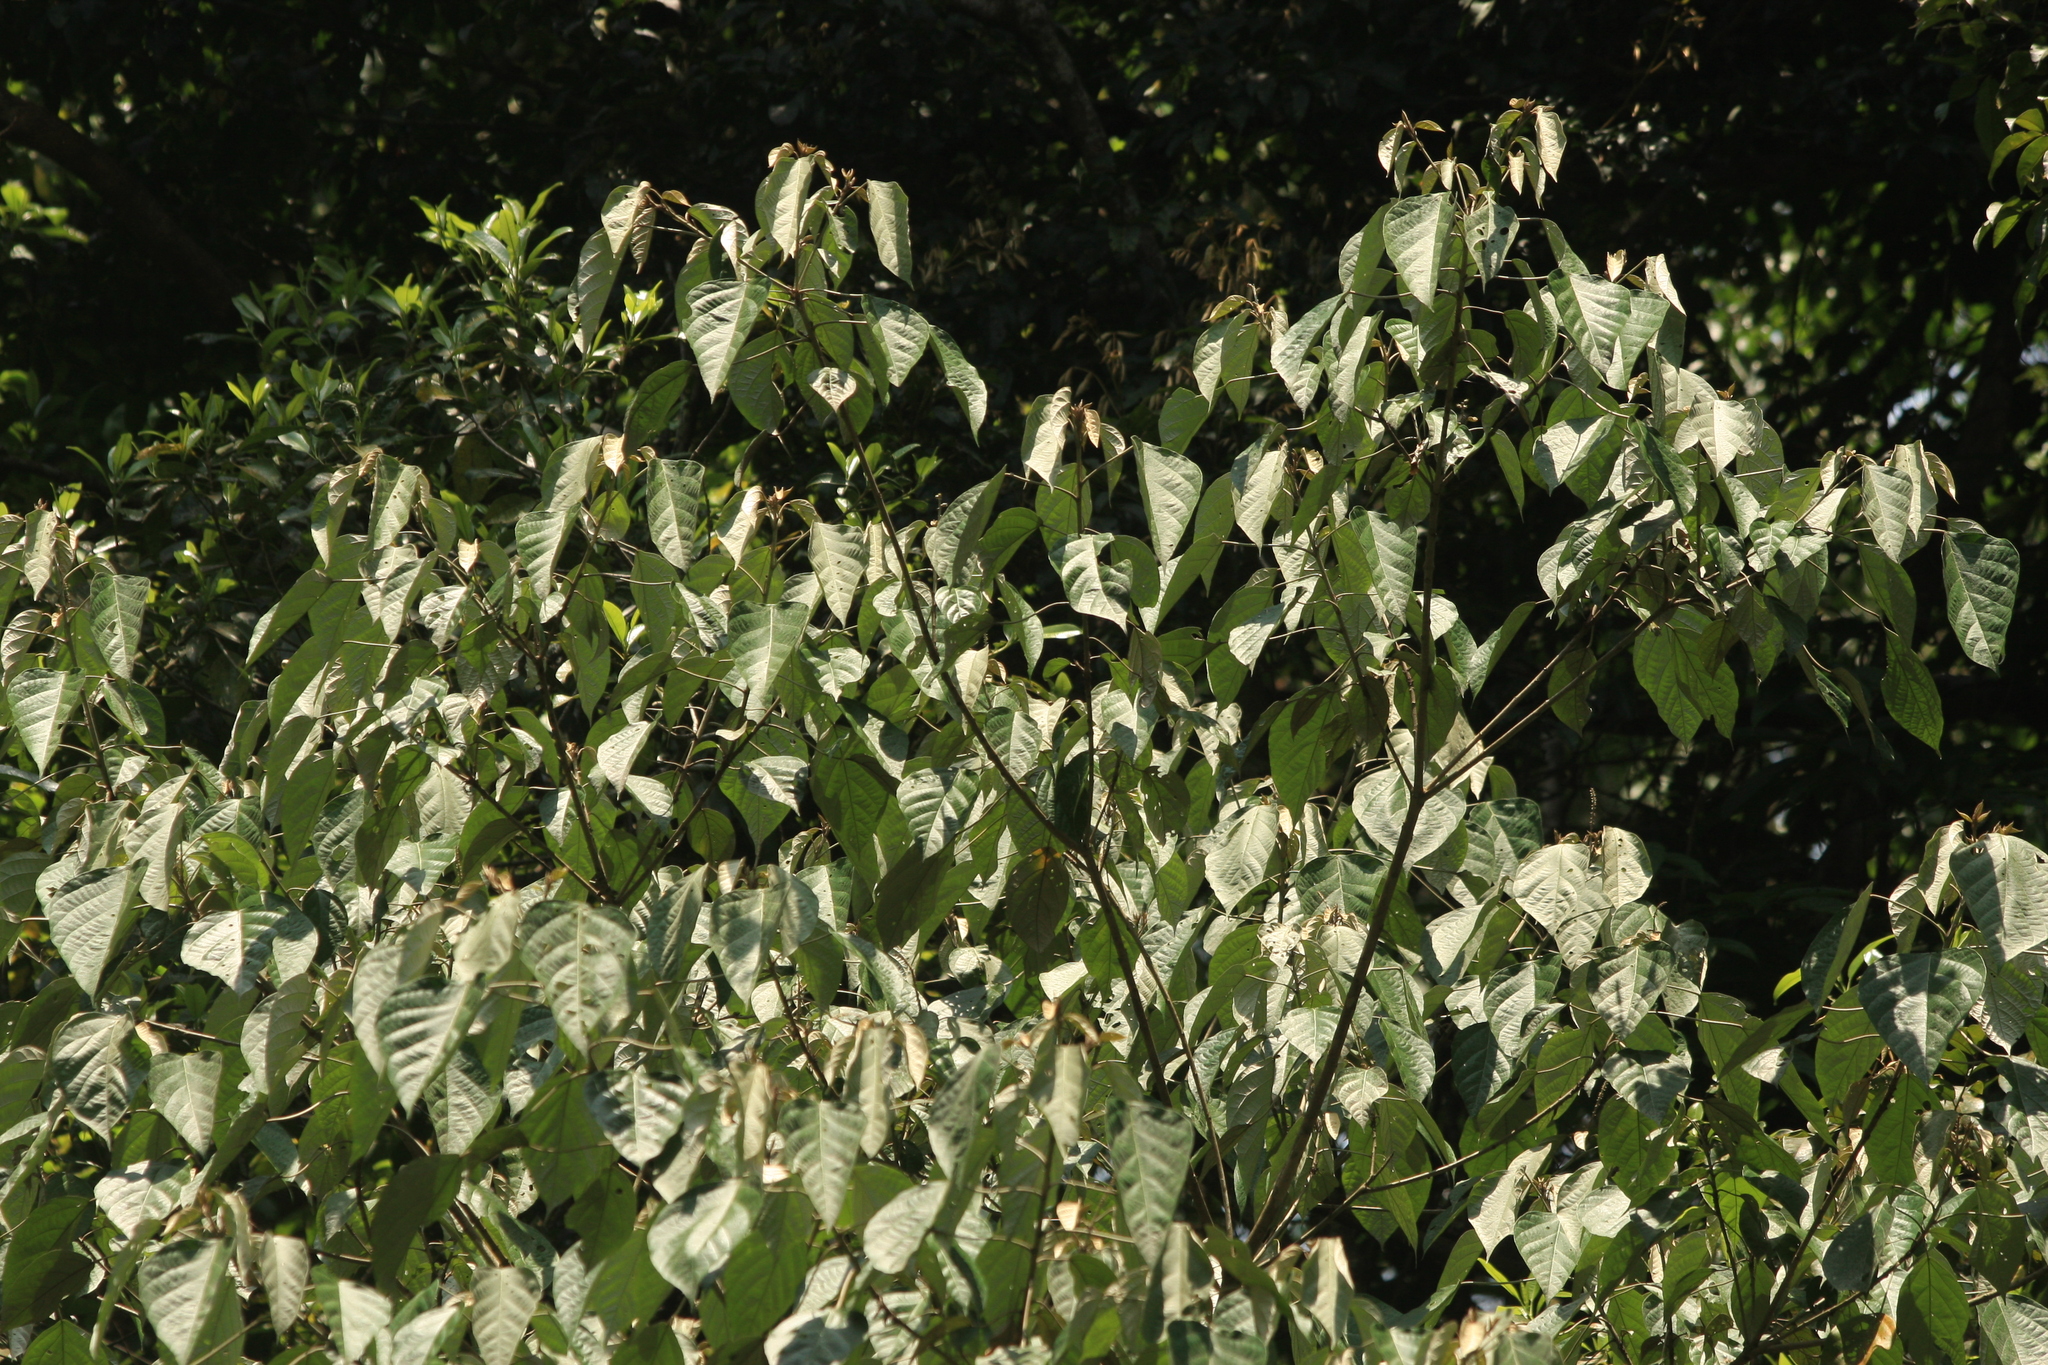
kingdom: Plantae
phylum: Tracheophyta
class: Magnoliopsida
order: Malpighiales
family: Euphorbiaceae
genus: Croton
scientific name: Croton malabaricus
